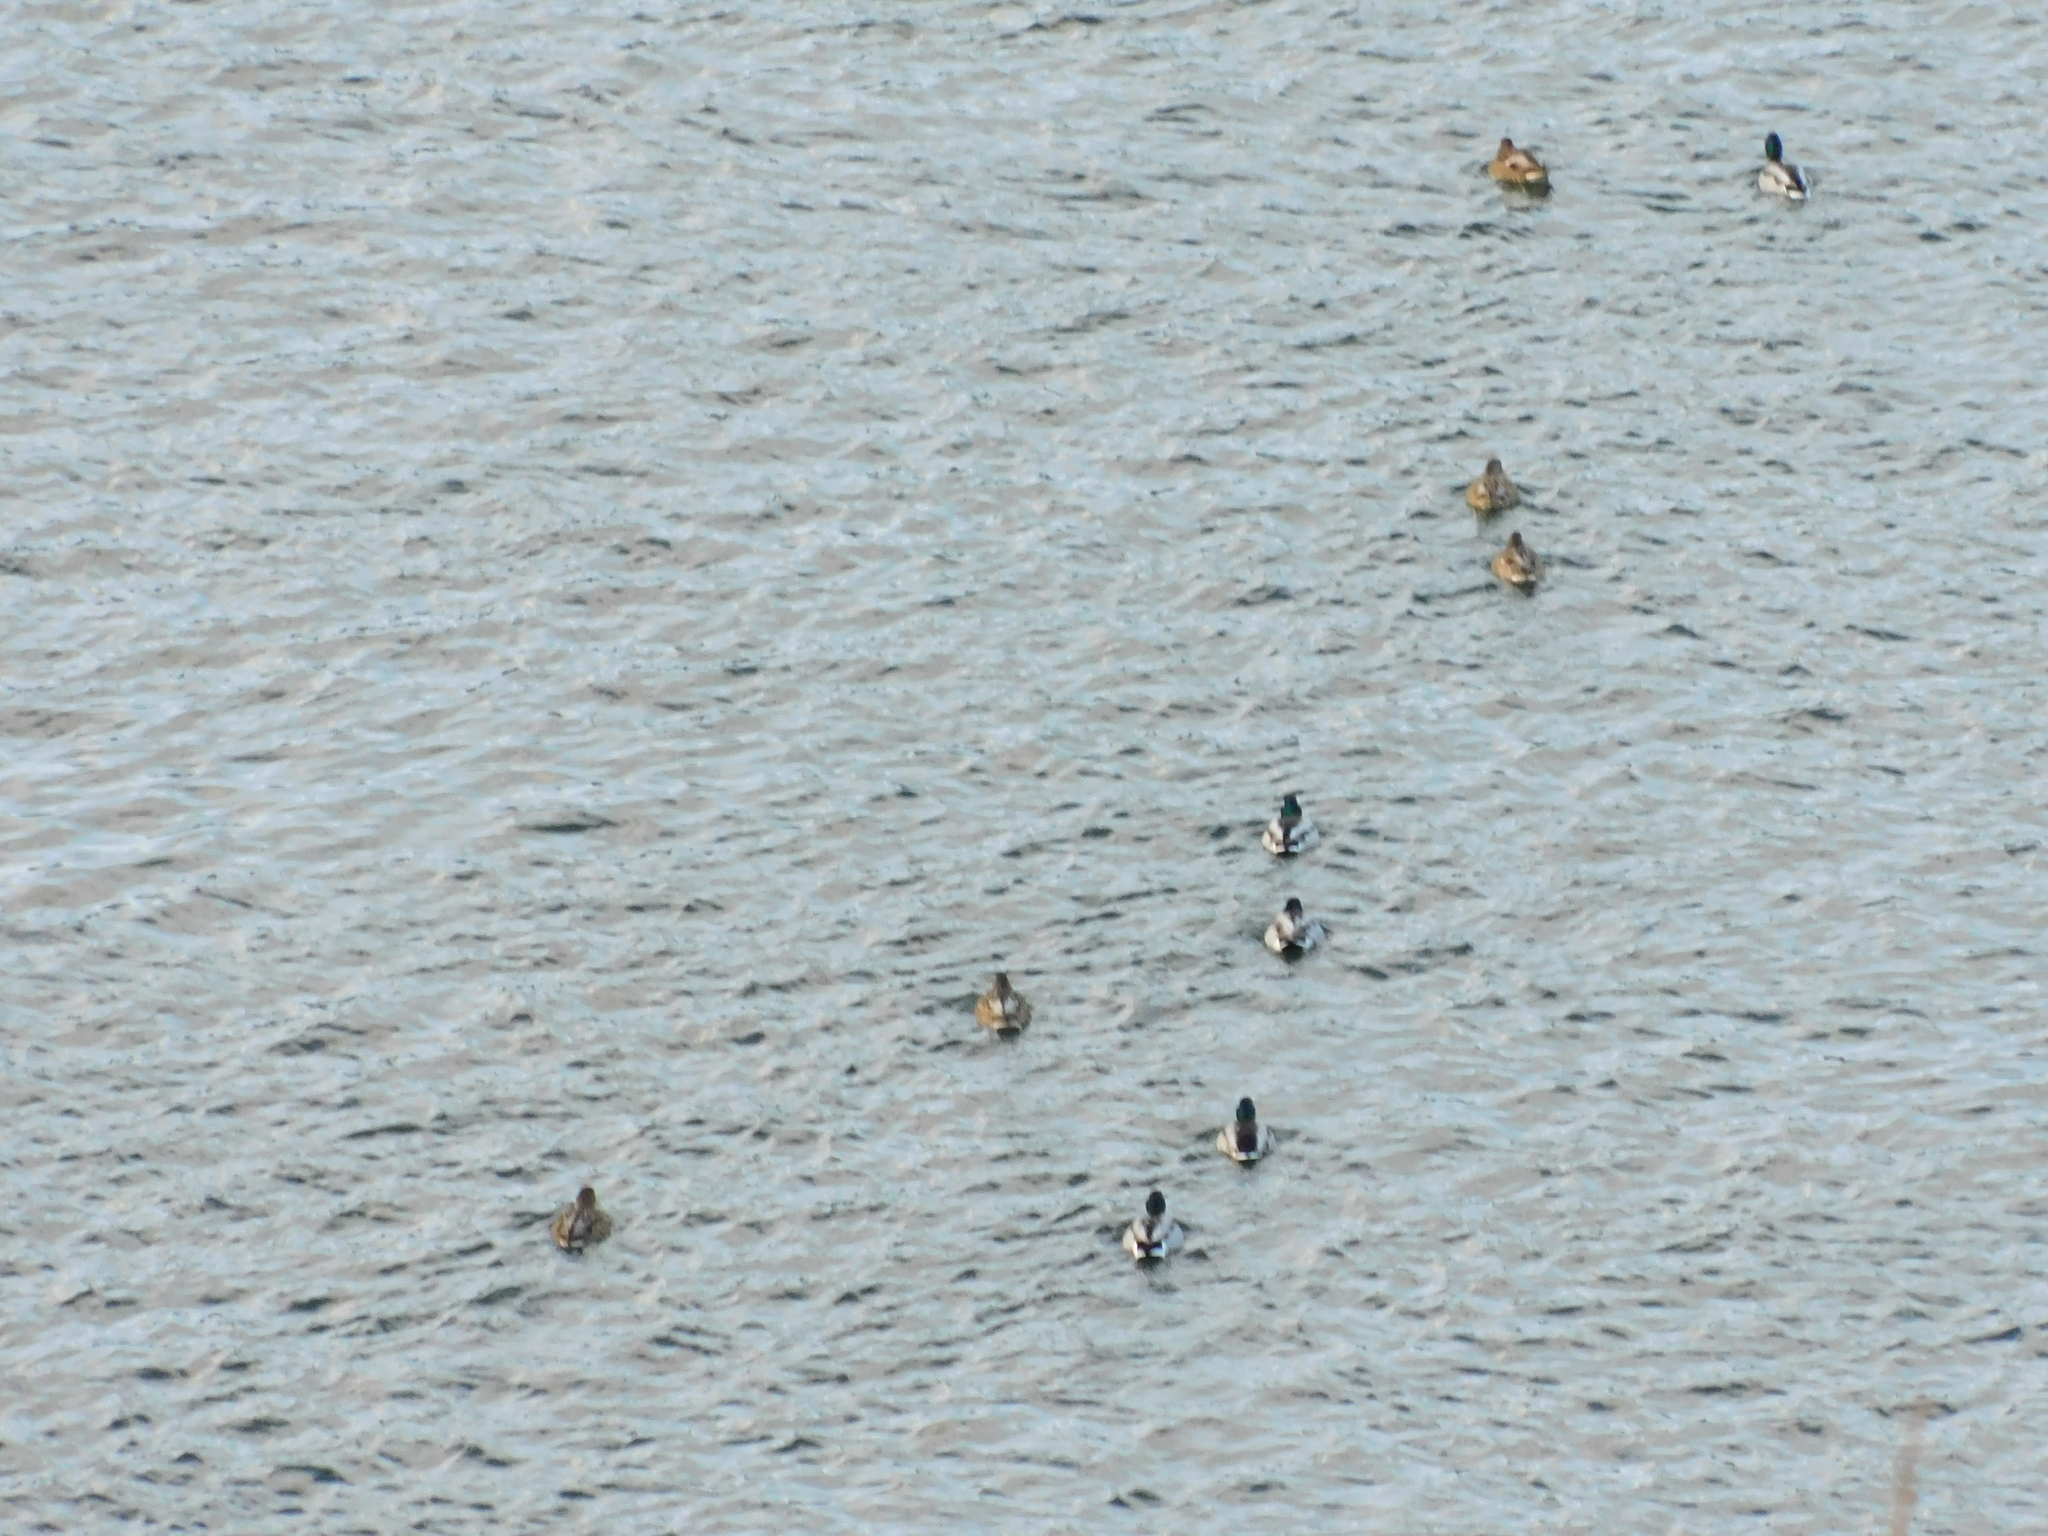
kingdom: Animalia
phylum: Chordata
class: Aves
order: Anseriformes
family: Anatidae
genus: Anas
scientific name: Anas platyrhynchos
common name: Mallard
